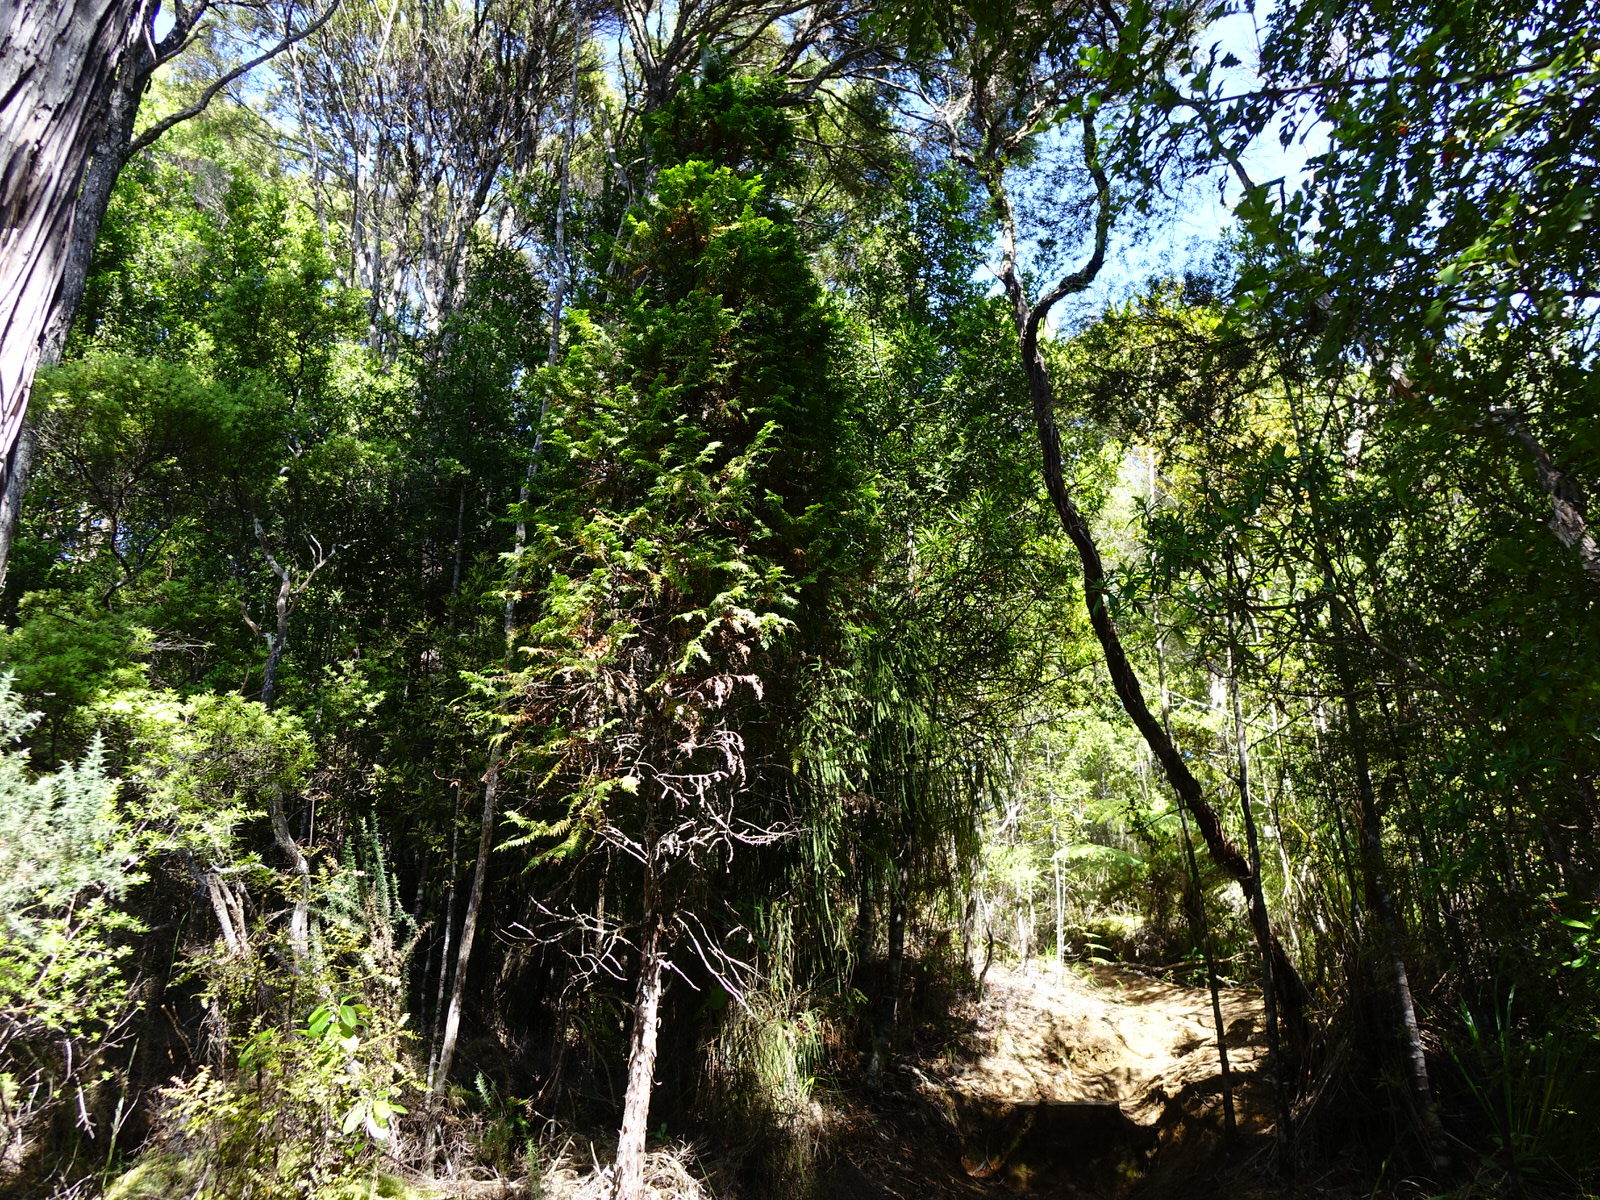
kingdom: Plantae
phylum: Tracheophyta
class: Pinopsida
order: Pinales
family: Cupressaceae
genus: Libocedrus
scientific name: Libocedrus plumosa
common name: New zealand cedar
